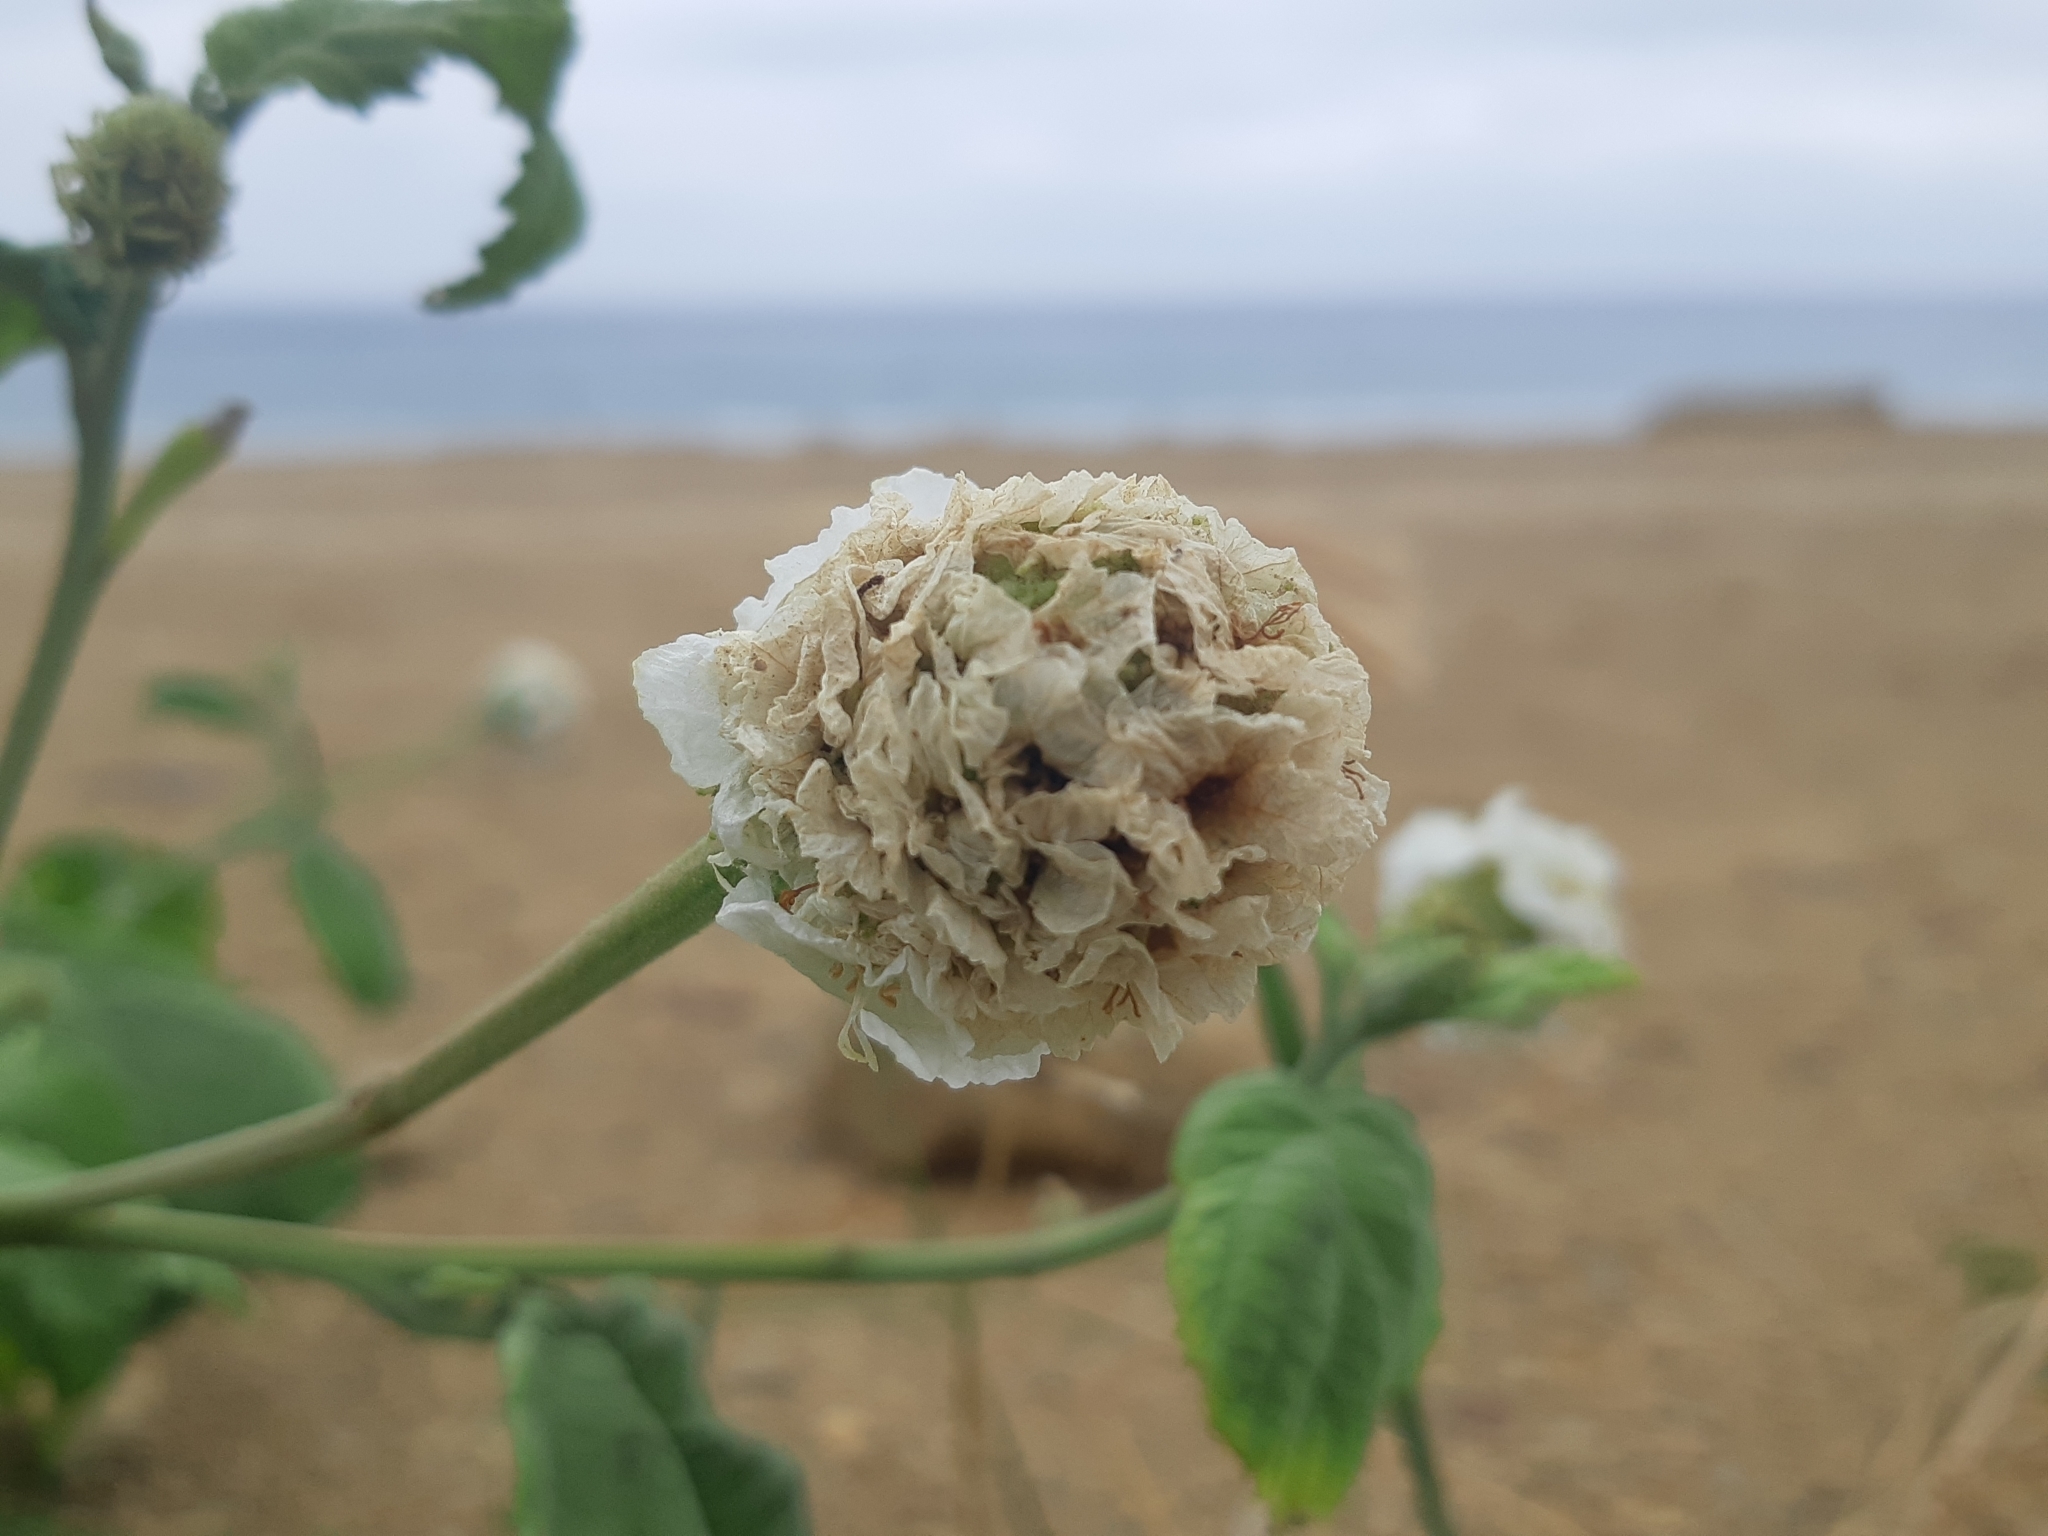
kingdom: Plantae
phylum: Tracheophyta
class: Magnoliopsida
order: Boraginales
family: Cordiaceae
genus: Varronia
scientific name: Varronia macrocephala
